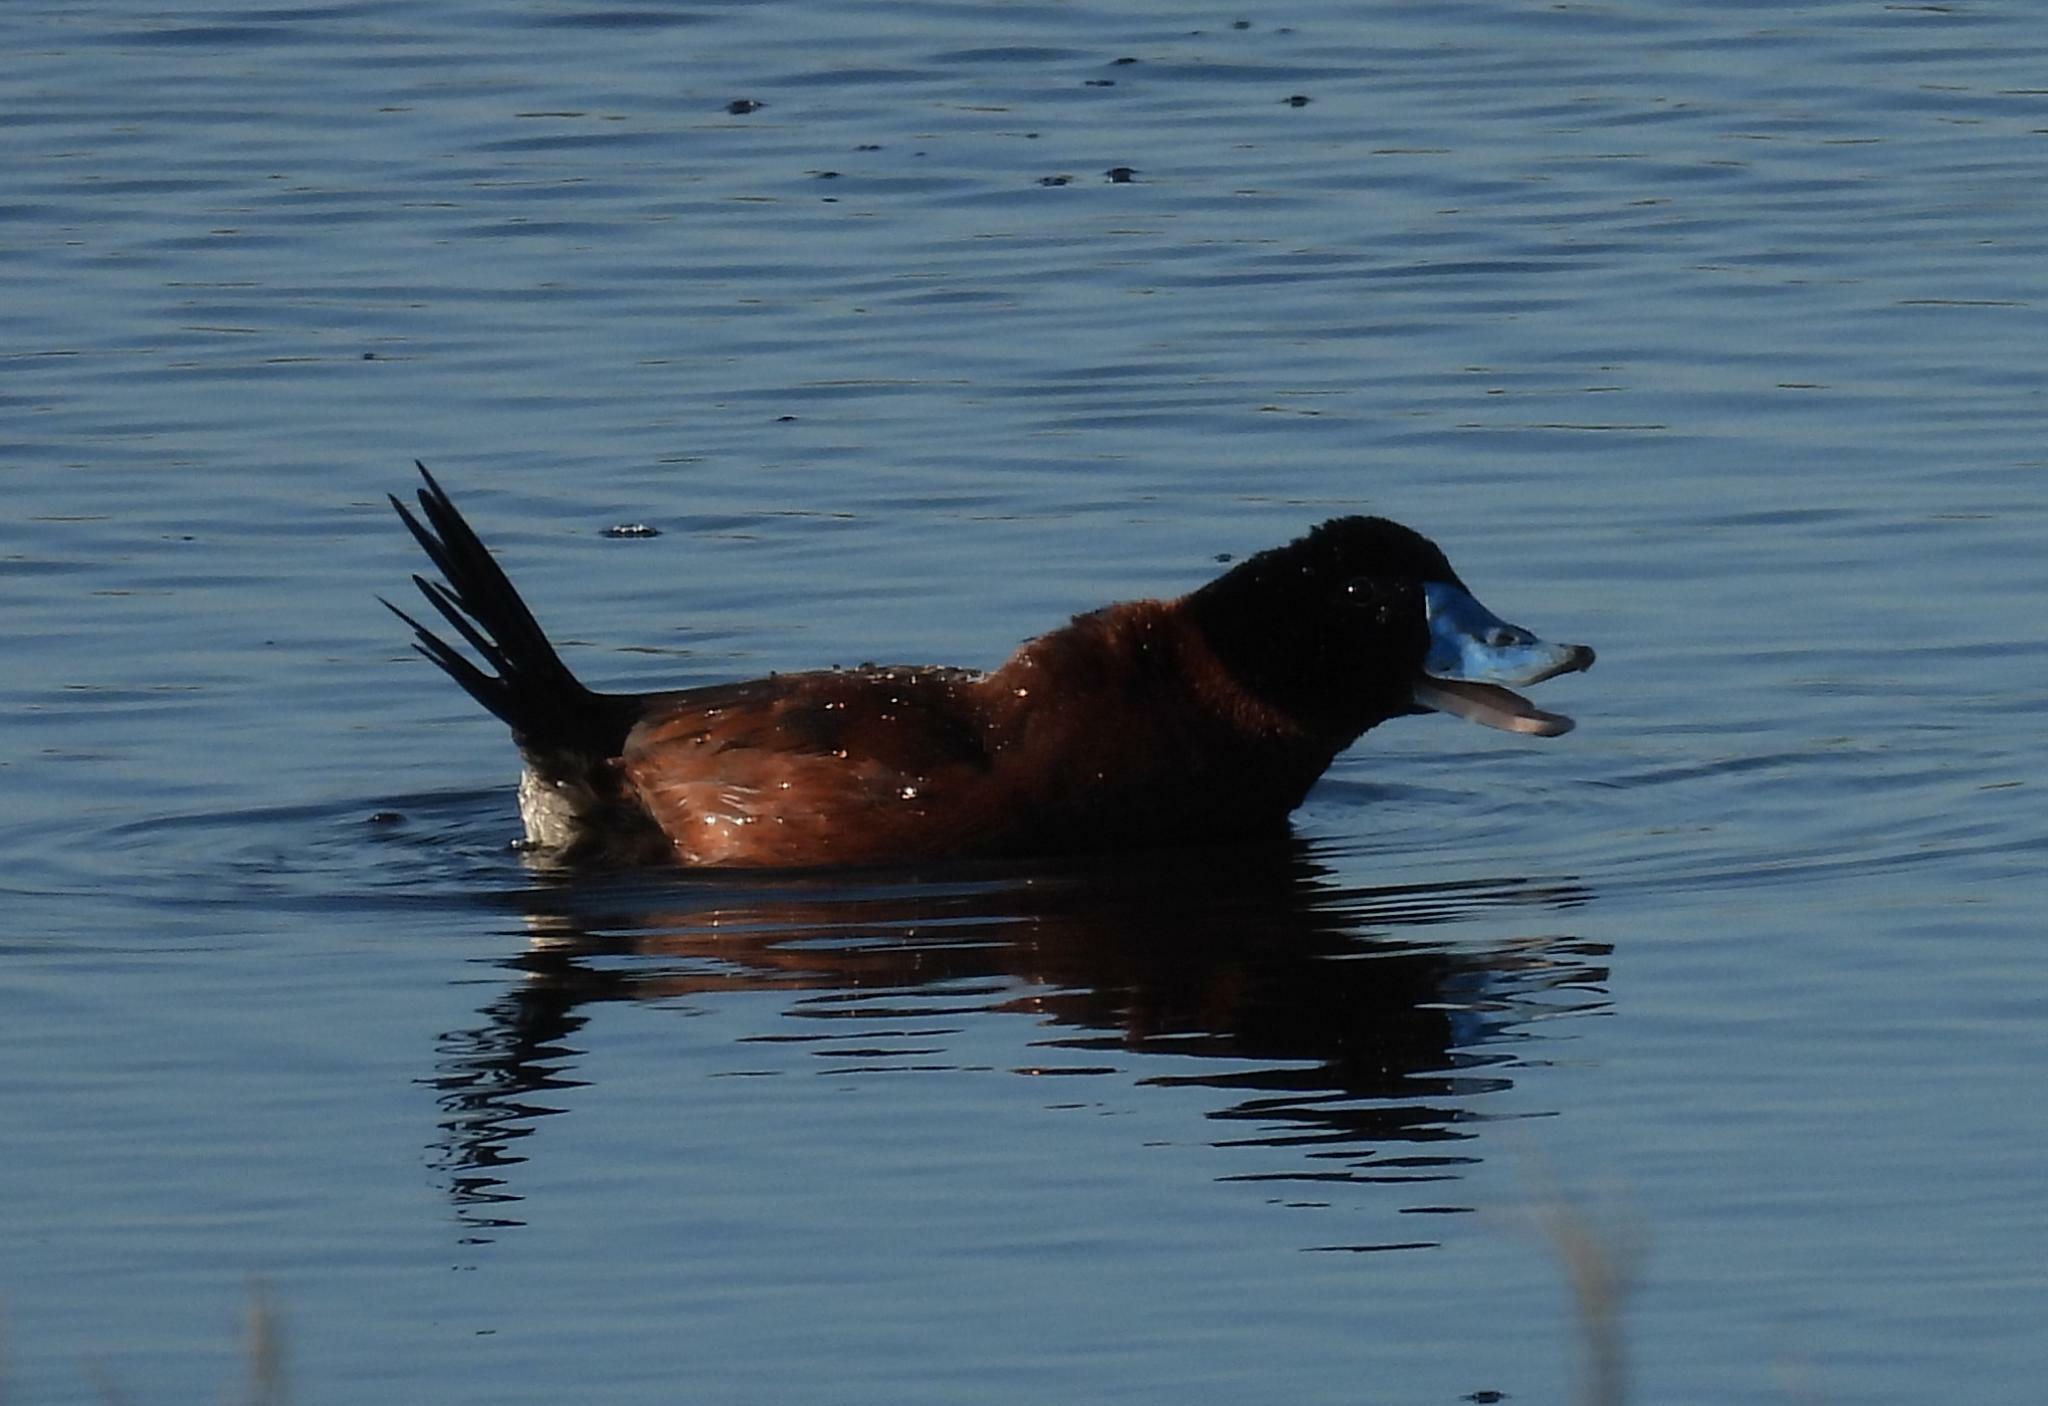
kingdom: Animalia
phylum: Chordata
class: Aves
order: Anseriformes
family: Anatidae
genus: Oxyura
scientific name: Oxyura maccoa
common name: Maccoa duck
